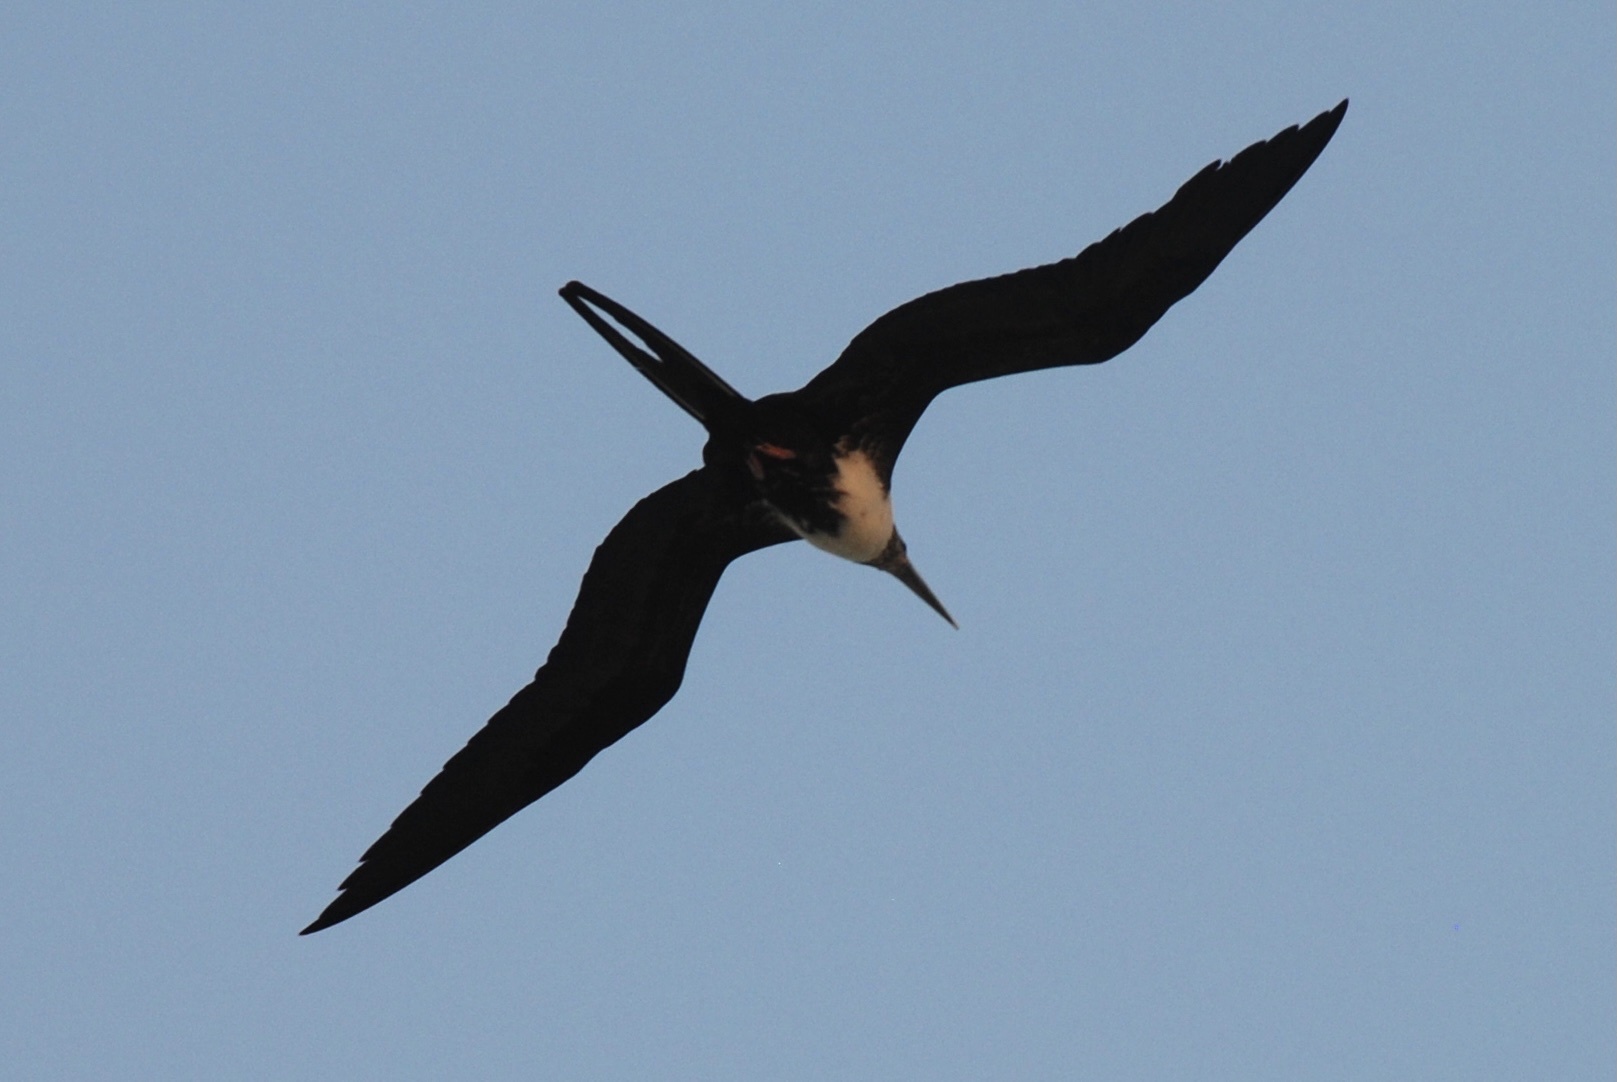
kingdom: Animalia
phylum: Chordata
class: Aves
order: Suliformes
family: Fregatidae
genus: Fregata
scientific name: Fregata magnificens
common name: Magnificent frigatebird
